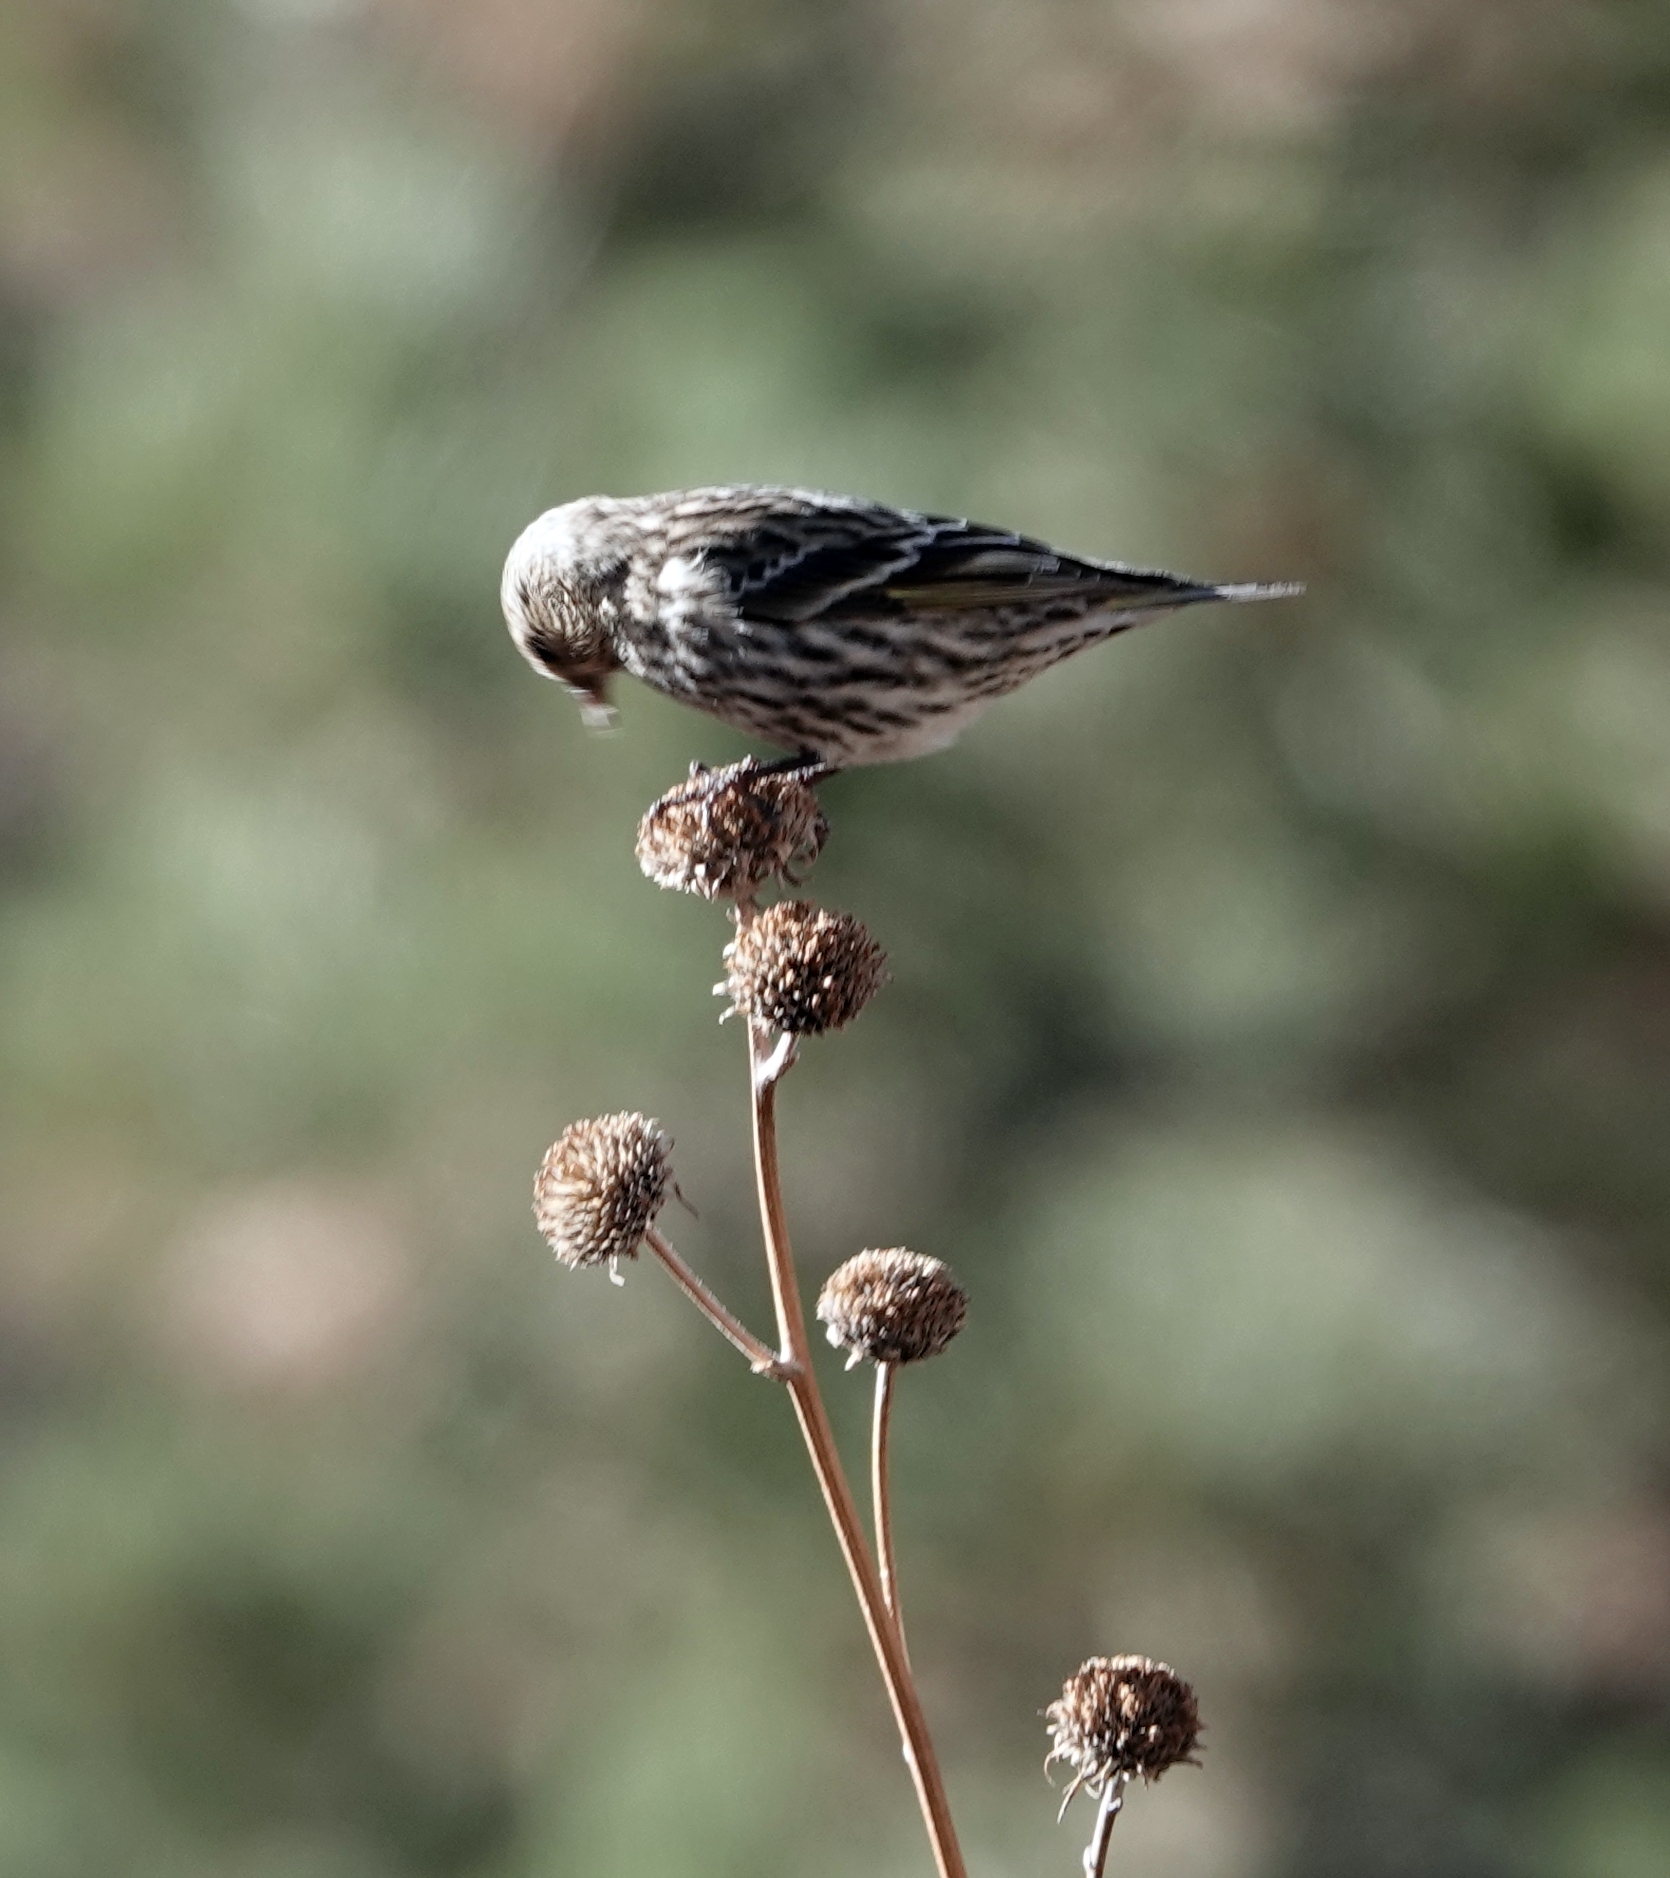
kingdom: Animalia
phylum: Chordata
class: Aves
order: Passeriformes
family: Fringillidae
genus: Spinus
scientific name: Spinus pinus
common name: Pine siskin
